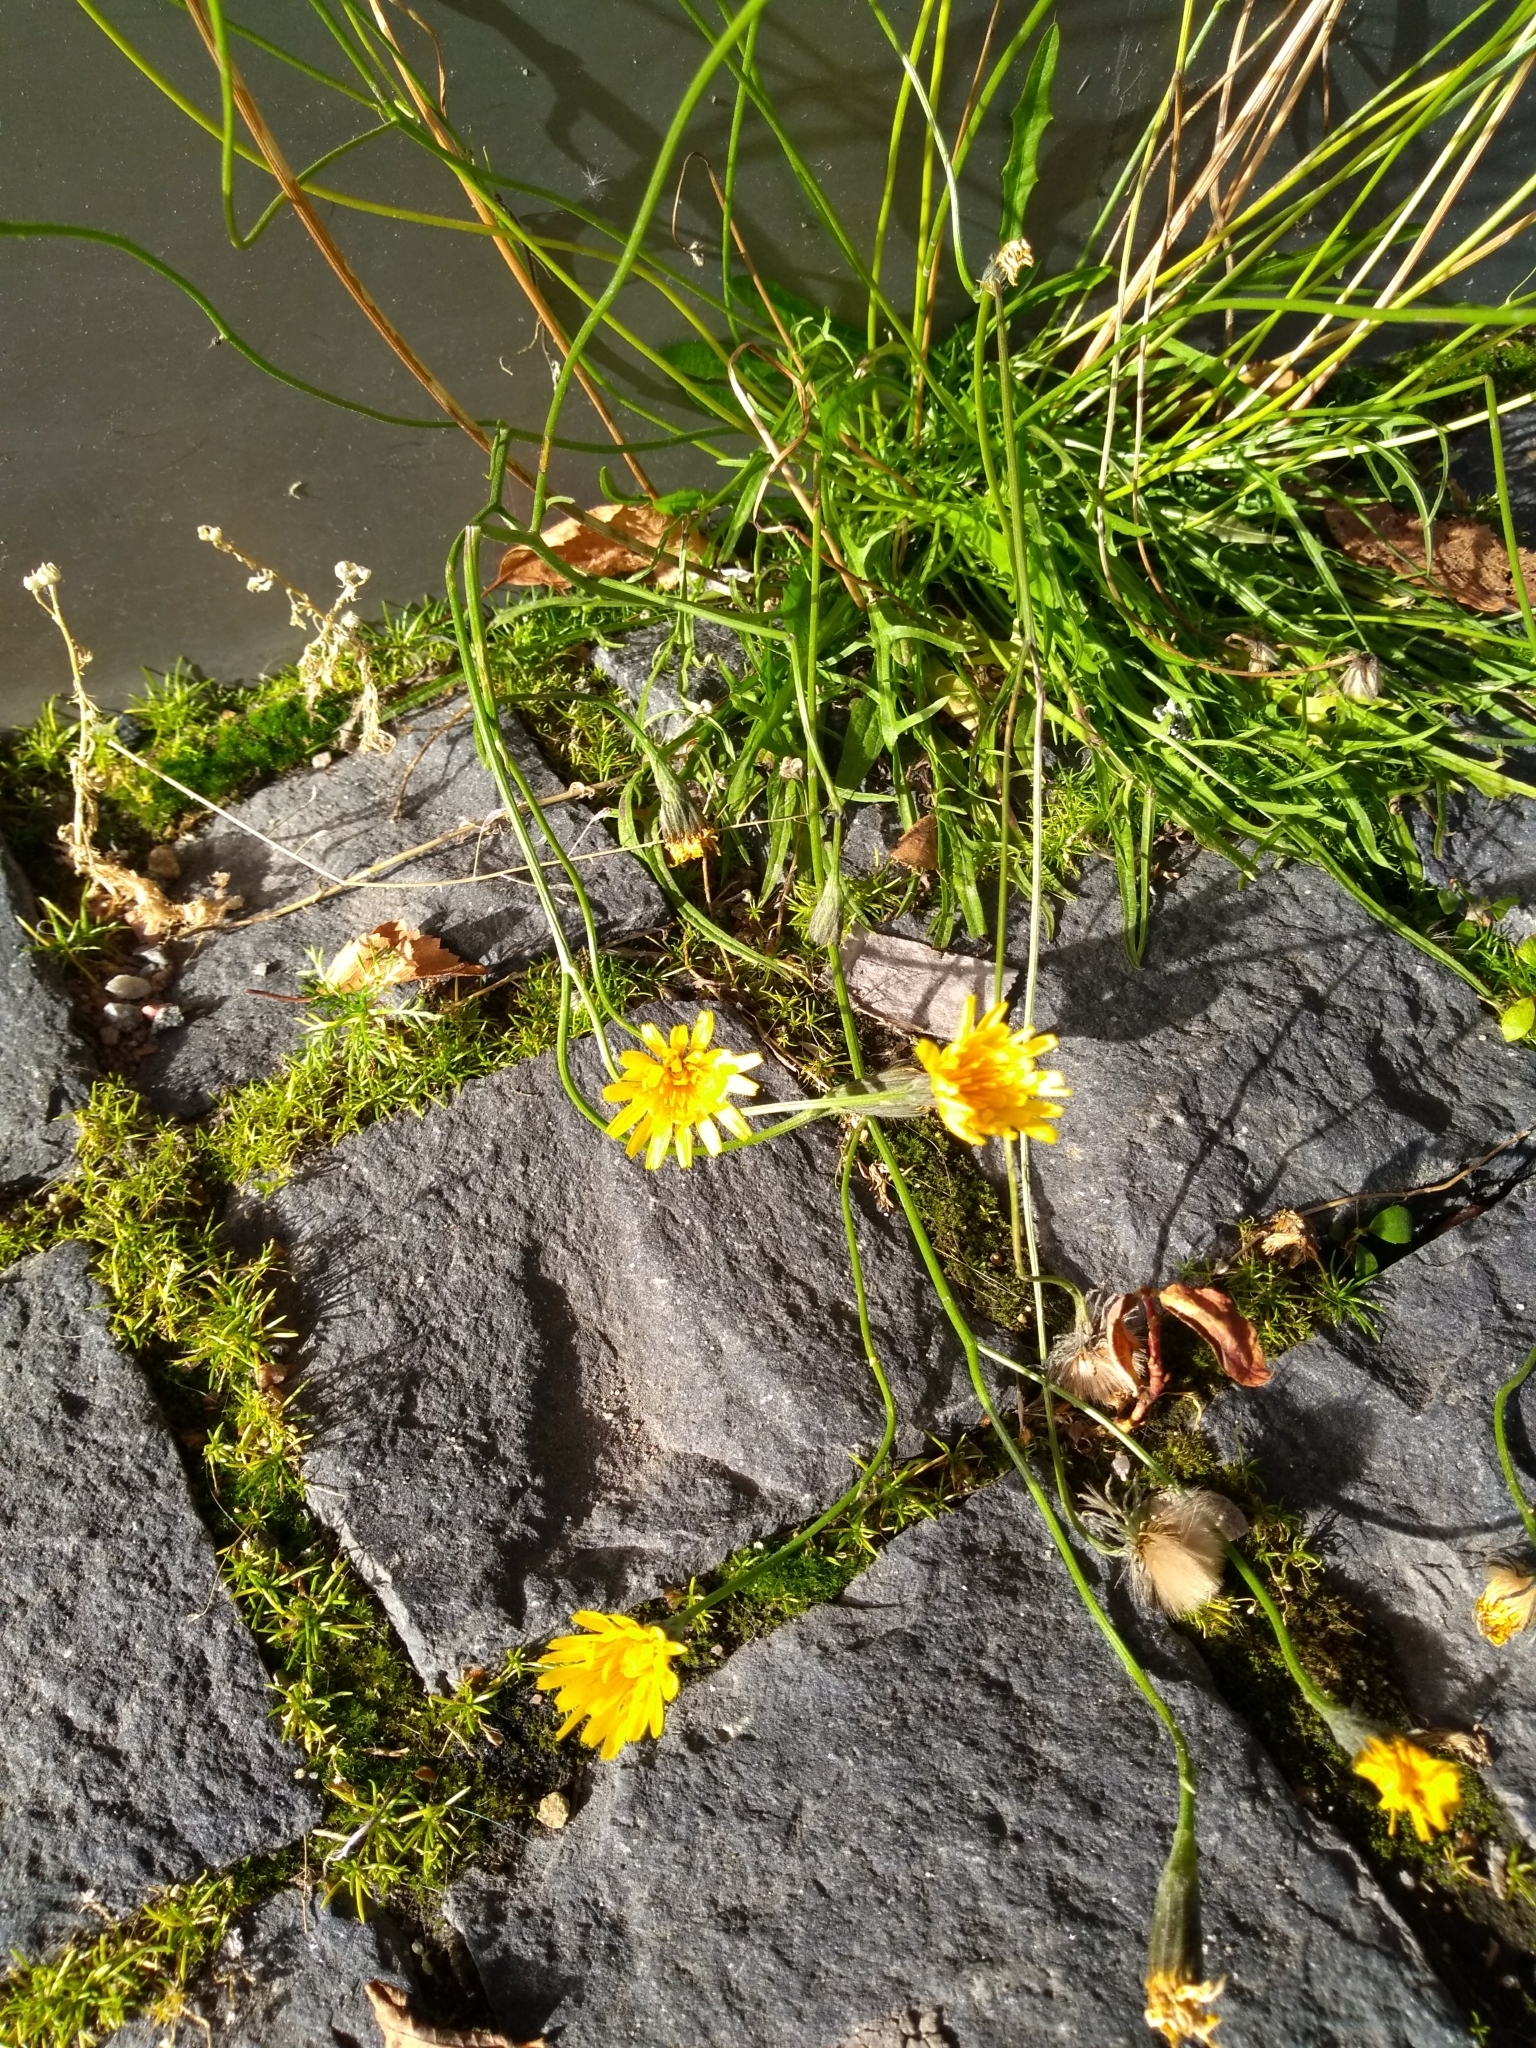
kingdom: Plantae
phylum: Tracheophyta
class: Magnoliopsida
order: Asterales
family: Asteraceae
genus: Scorzoneroides
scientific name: Scorzoneroides autumnalis
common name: Autumn hawkbit
